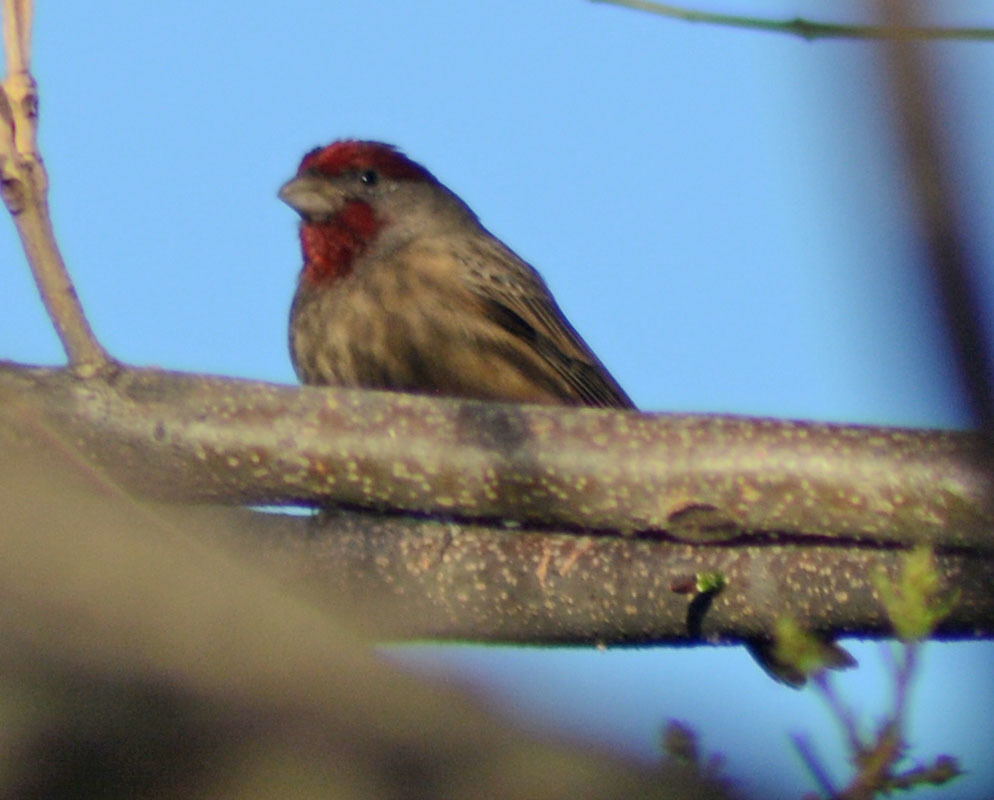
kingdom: Animalia
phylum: Chordata
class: Aves
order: Passeriformes
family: Fringillidae
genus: Haemorhous
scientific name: Haemorhous mexicanus
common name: House finch
